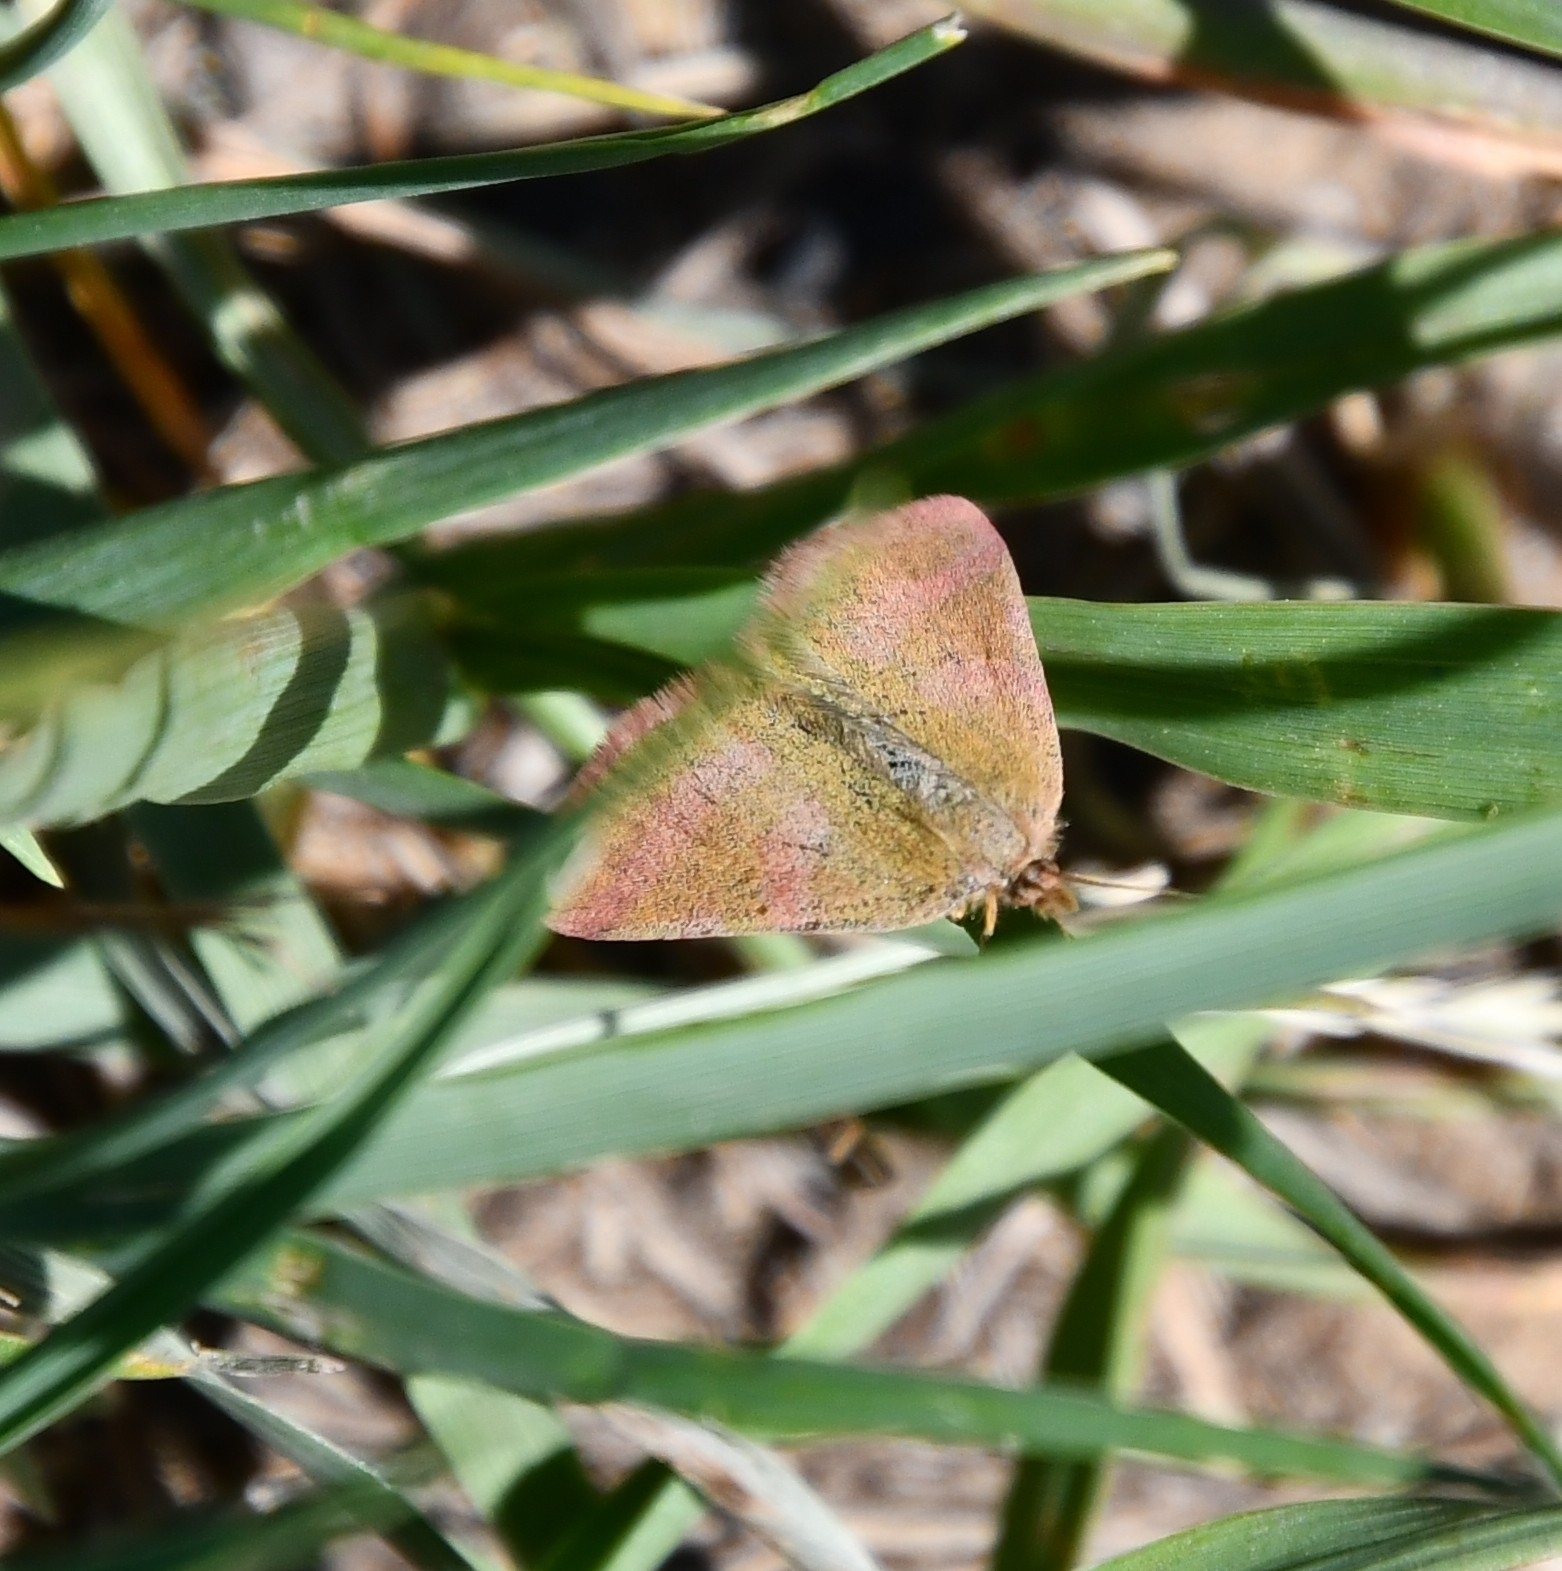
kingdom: Animalia
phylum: Arthropoda
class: Insecta
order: Lepidoptera
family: Geometridae
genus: Lythria
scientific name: Lythria purpuraria
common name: Purple-barred yellow
